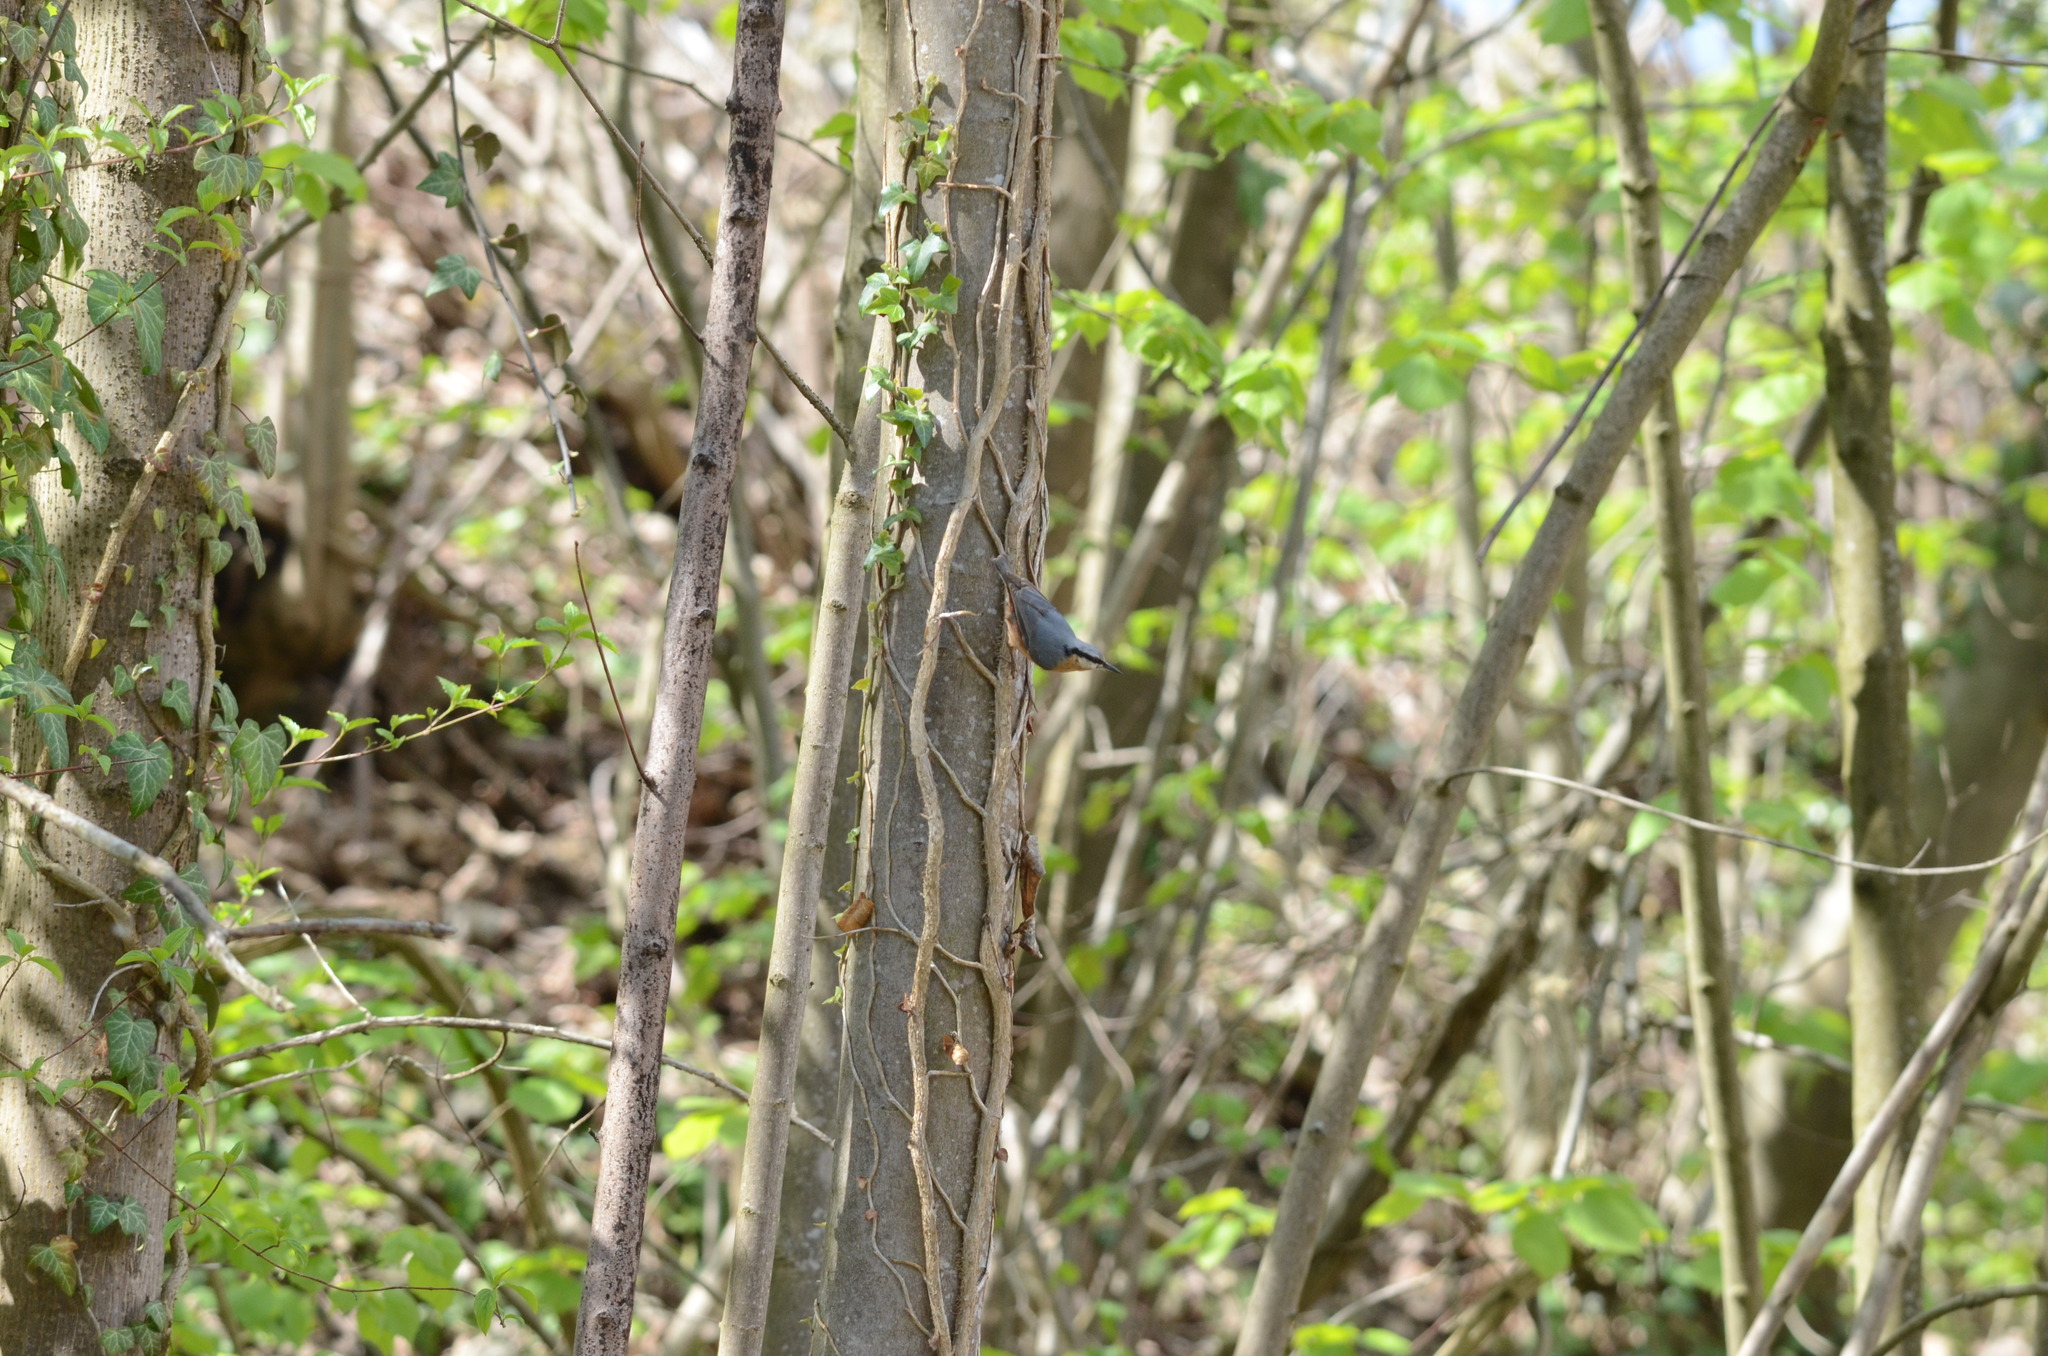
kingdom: Animalia
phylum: Chordata
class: Aves
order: Passeriformes
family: Sittidae
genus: Sitta
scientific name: Sitta europaea
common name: Eurasian nuthatch
